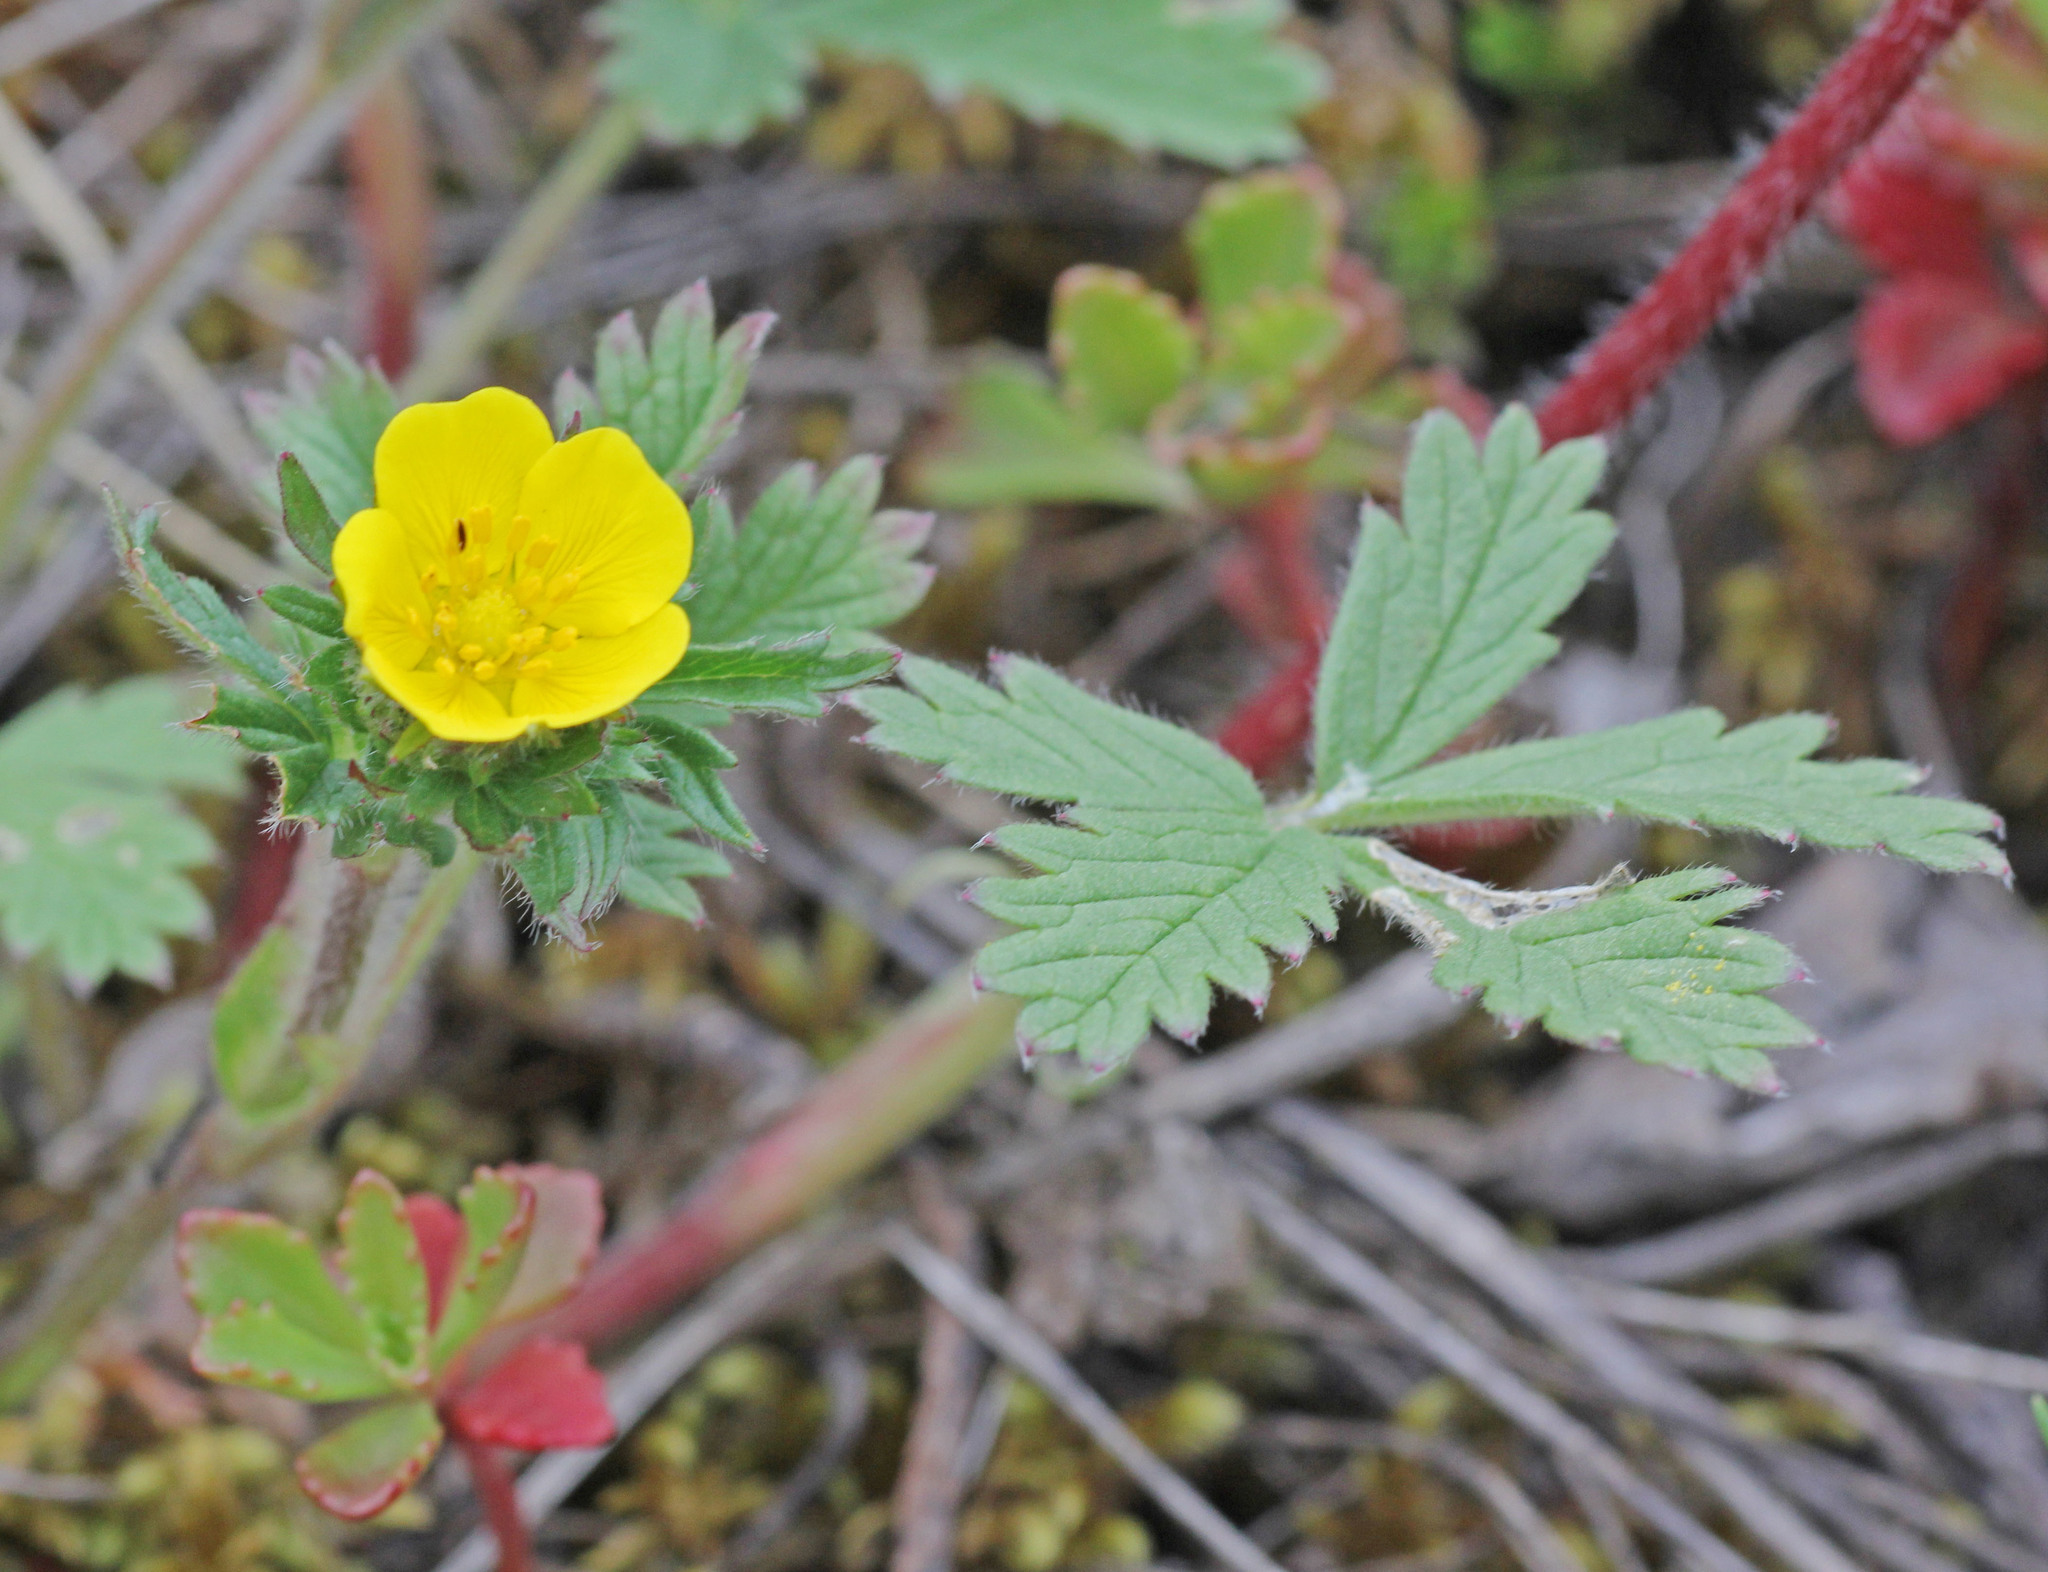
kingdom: Plantae
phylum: Tracheophyta
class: Magnoliopsida
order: Rosales
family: Rosaceae
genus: Potentilla
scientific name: Potentilla chrysantha
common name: Thuringian cinquefoil
